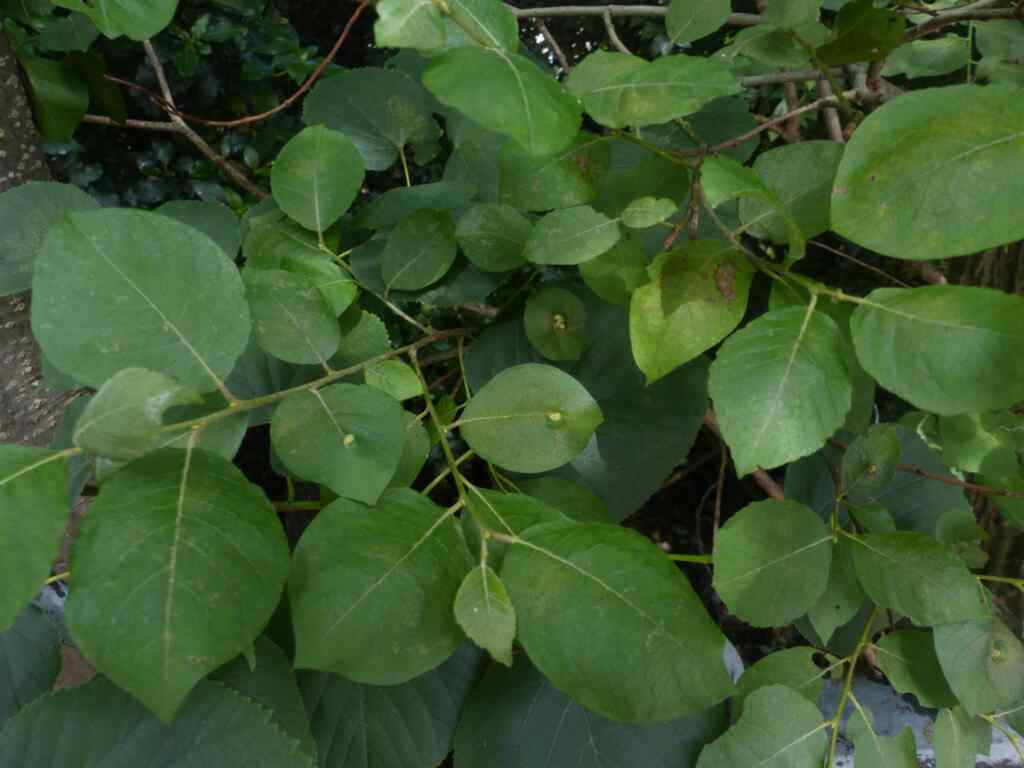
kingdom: Animalia
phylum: Arthropoda
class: Insecta
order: Hymenoptera
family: Tenthredinidae
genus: Pontania
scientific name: Pontania pedunculi
